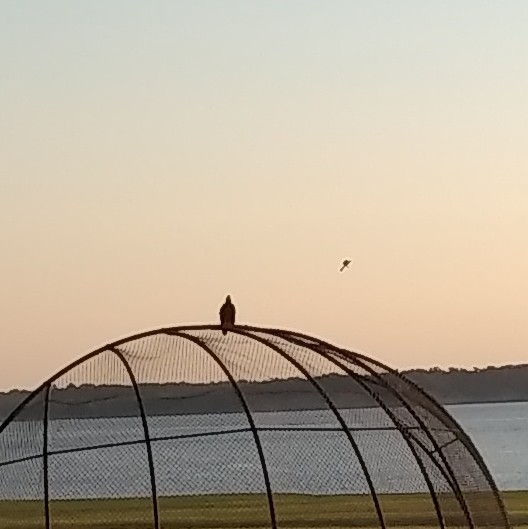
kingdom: Animalia
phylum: Chordata
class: Aves
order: Passeriformes
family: Tyrannidae
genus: Tyrannus
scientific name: Tyrannus forficatus
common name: Scissor-tailed flycatcher
